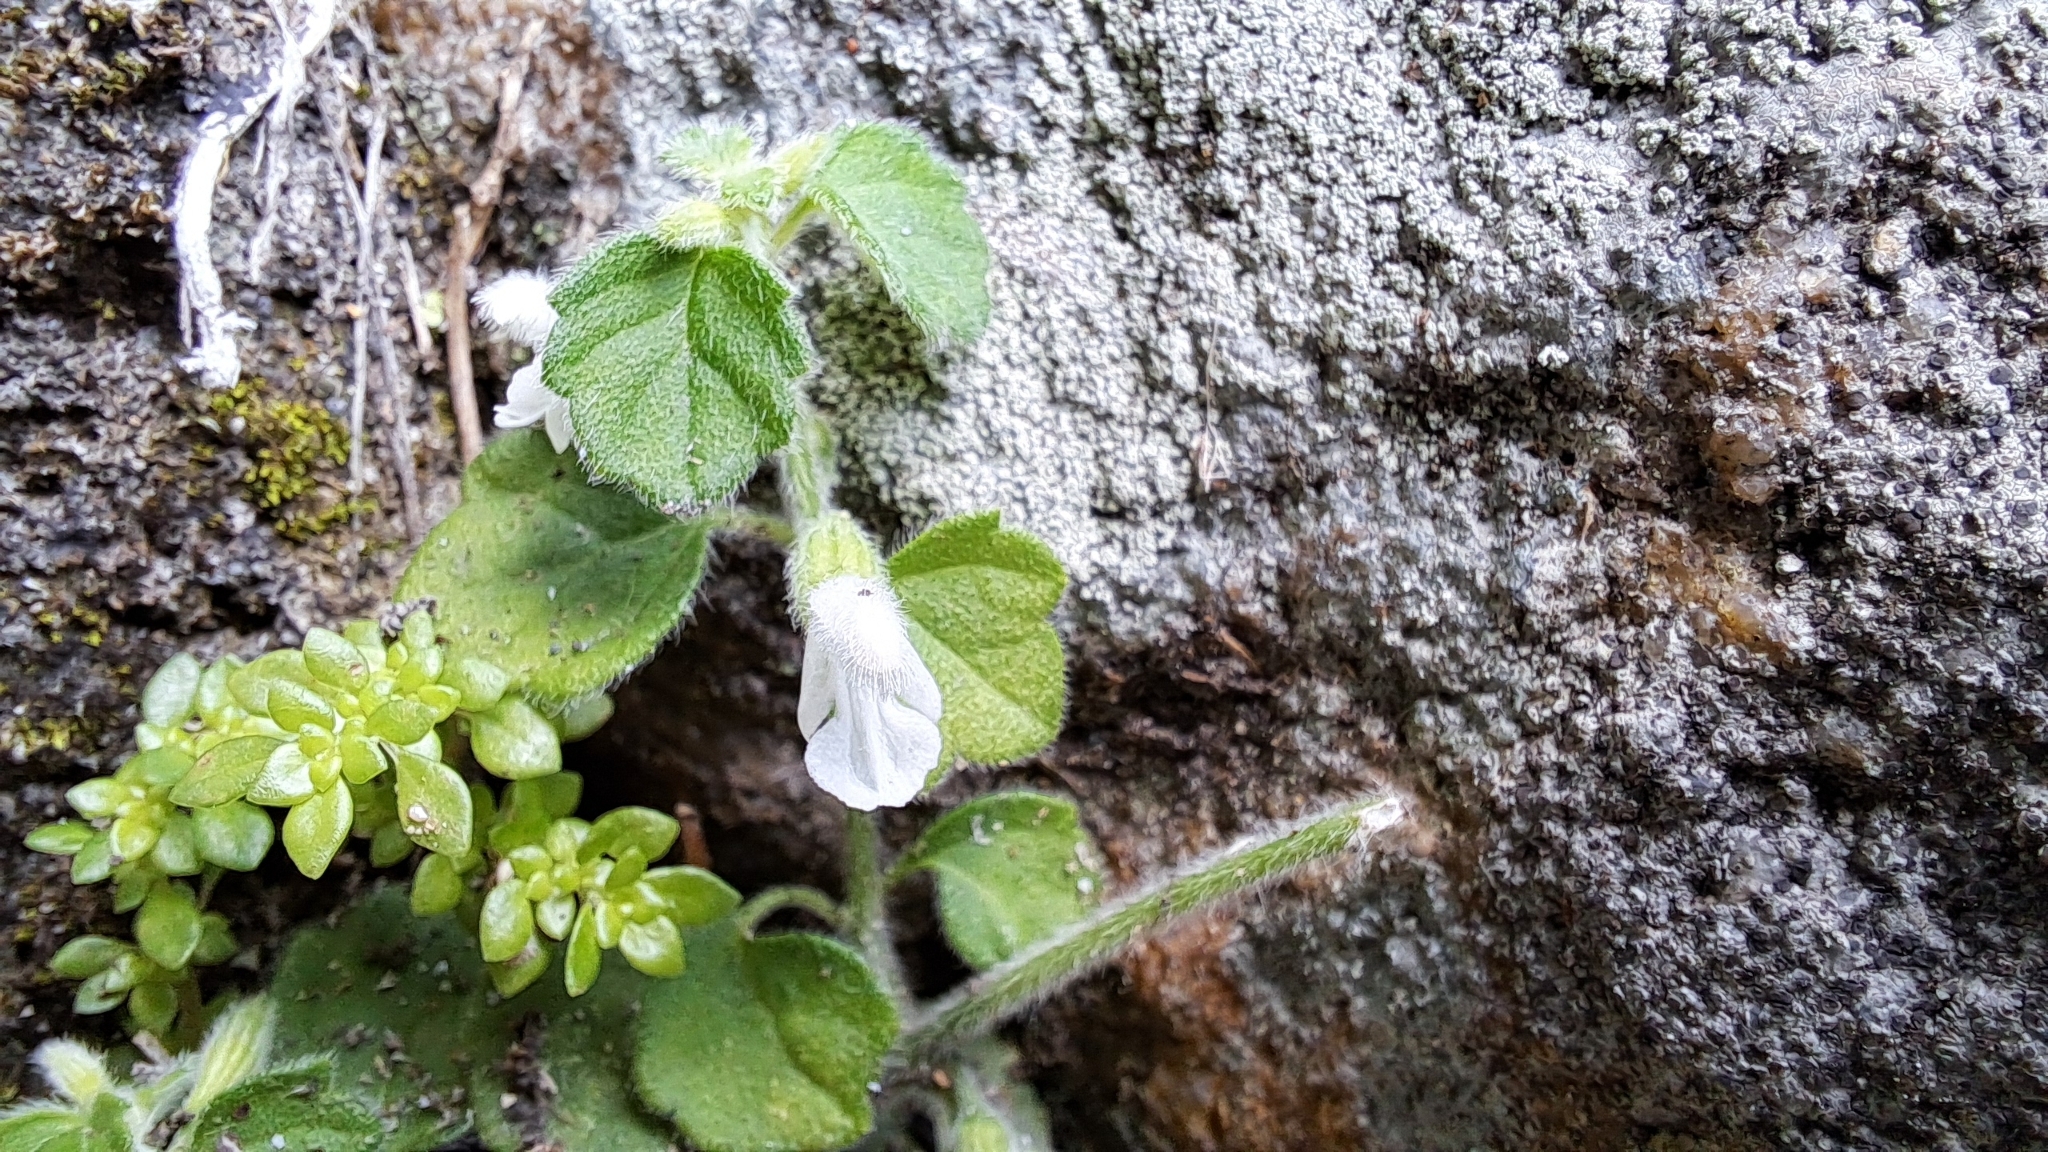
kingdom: Plantae
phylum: Tracheophyta
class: Magnoliopsida
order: Lamiales
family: Lamiaceae
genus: Leucas
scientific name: Leucas chinensis
